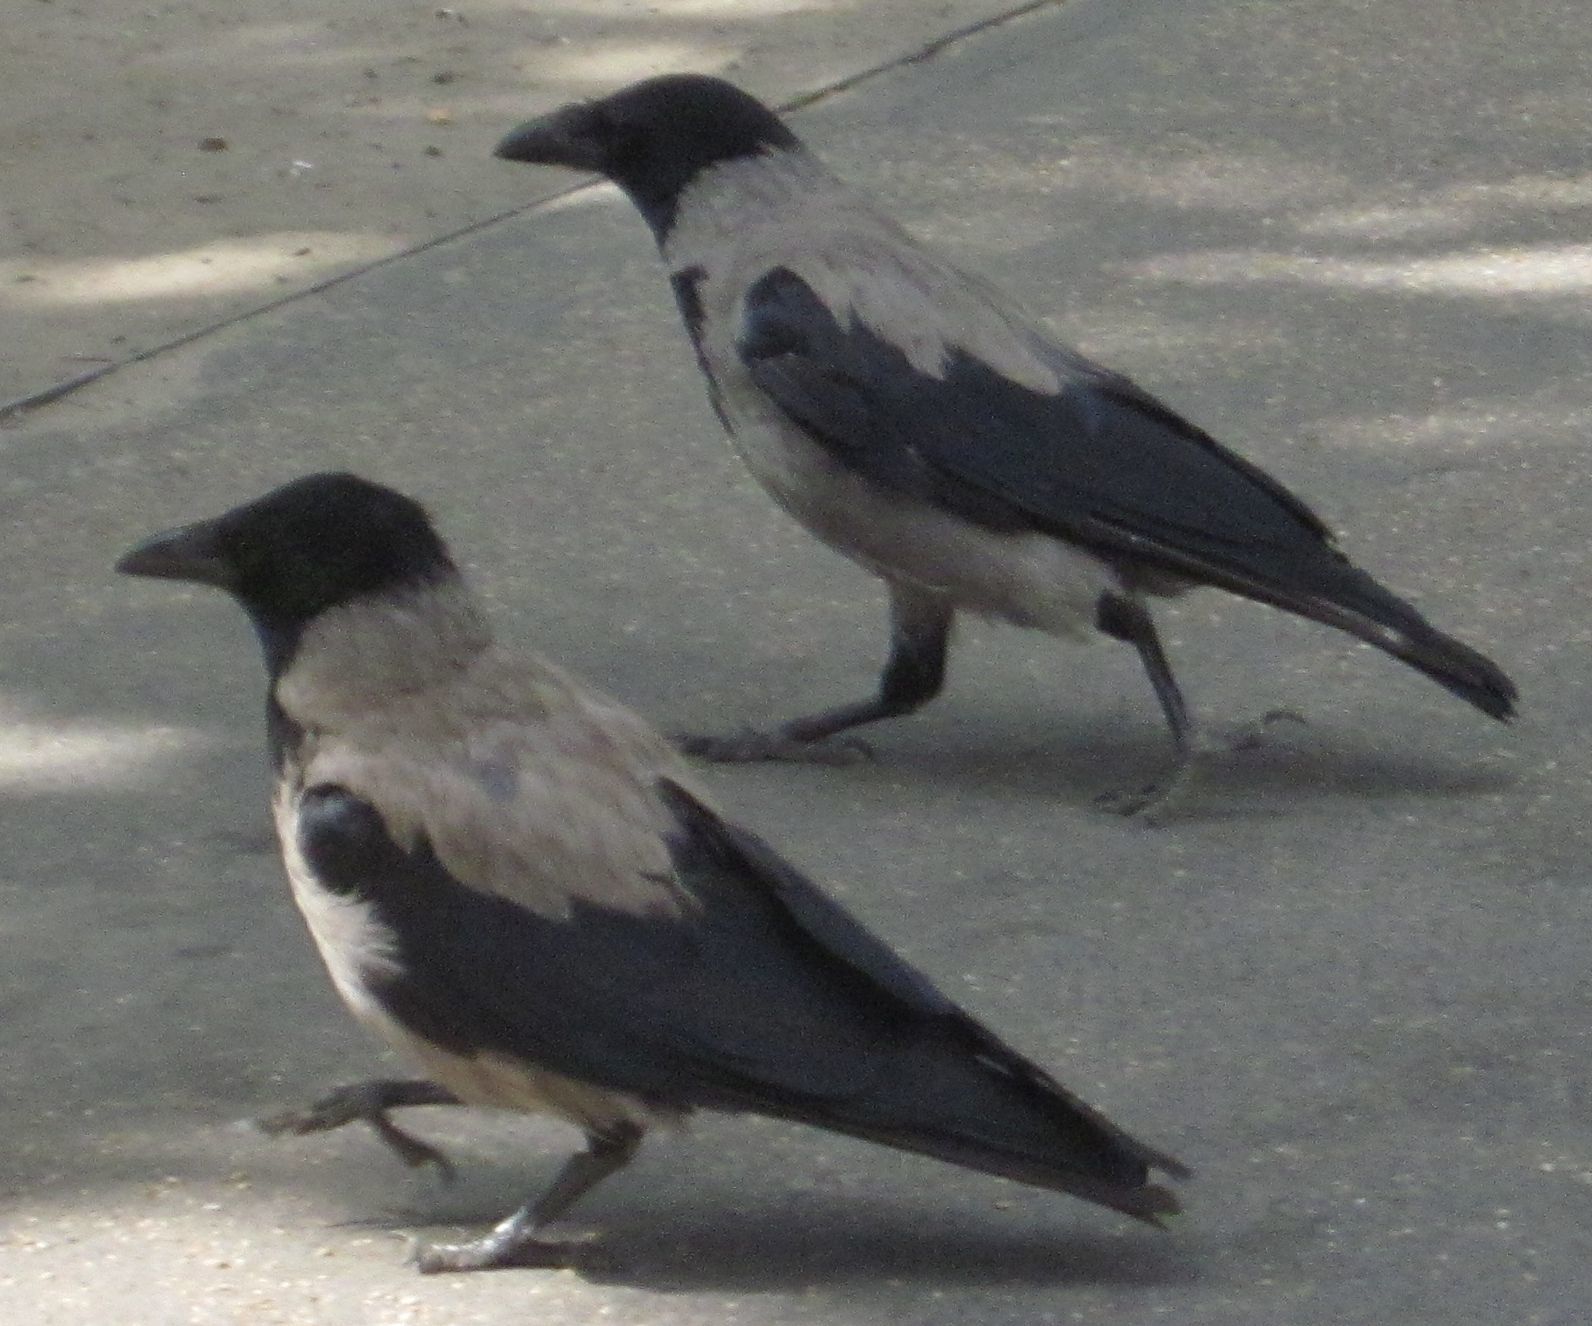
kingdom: Animalia
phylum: Chordata
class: Aves
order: Passeriformes
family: Corvidae
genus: Corvus
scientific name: Corvus cornix
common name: Hooded crow
